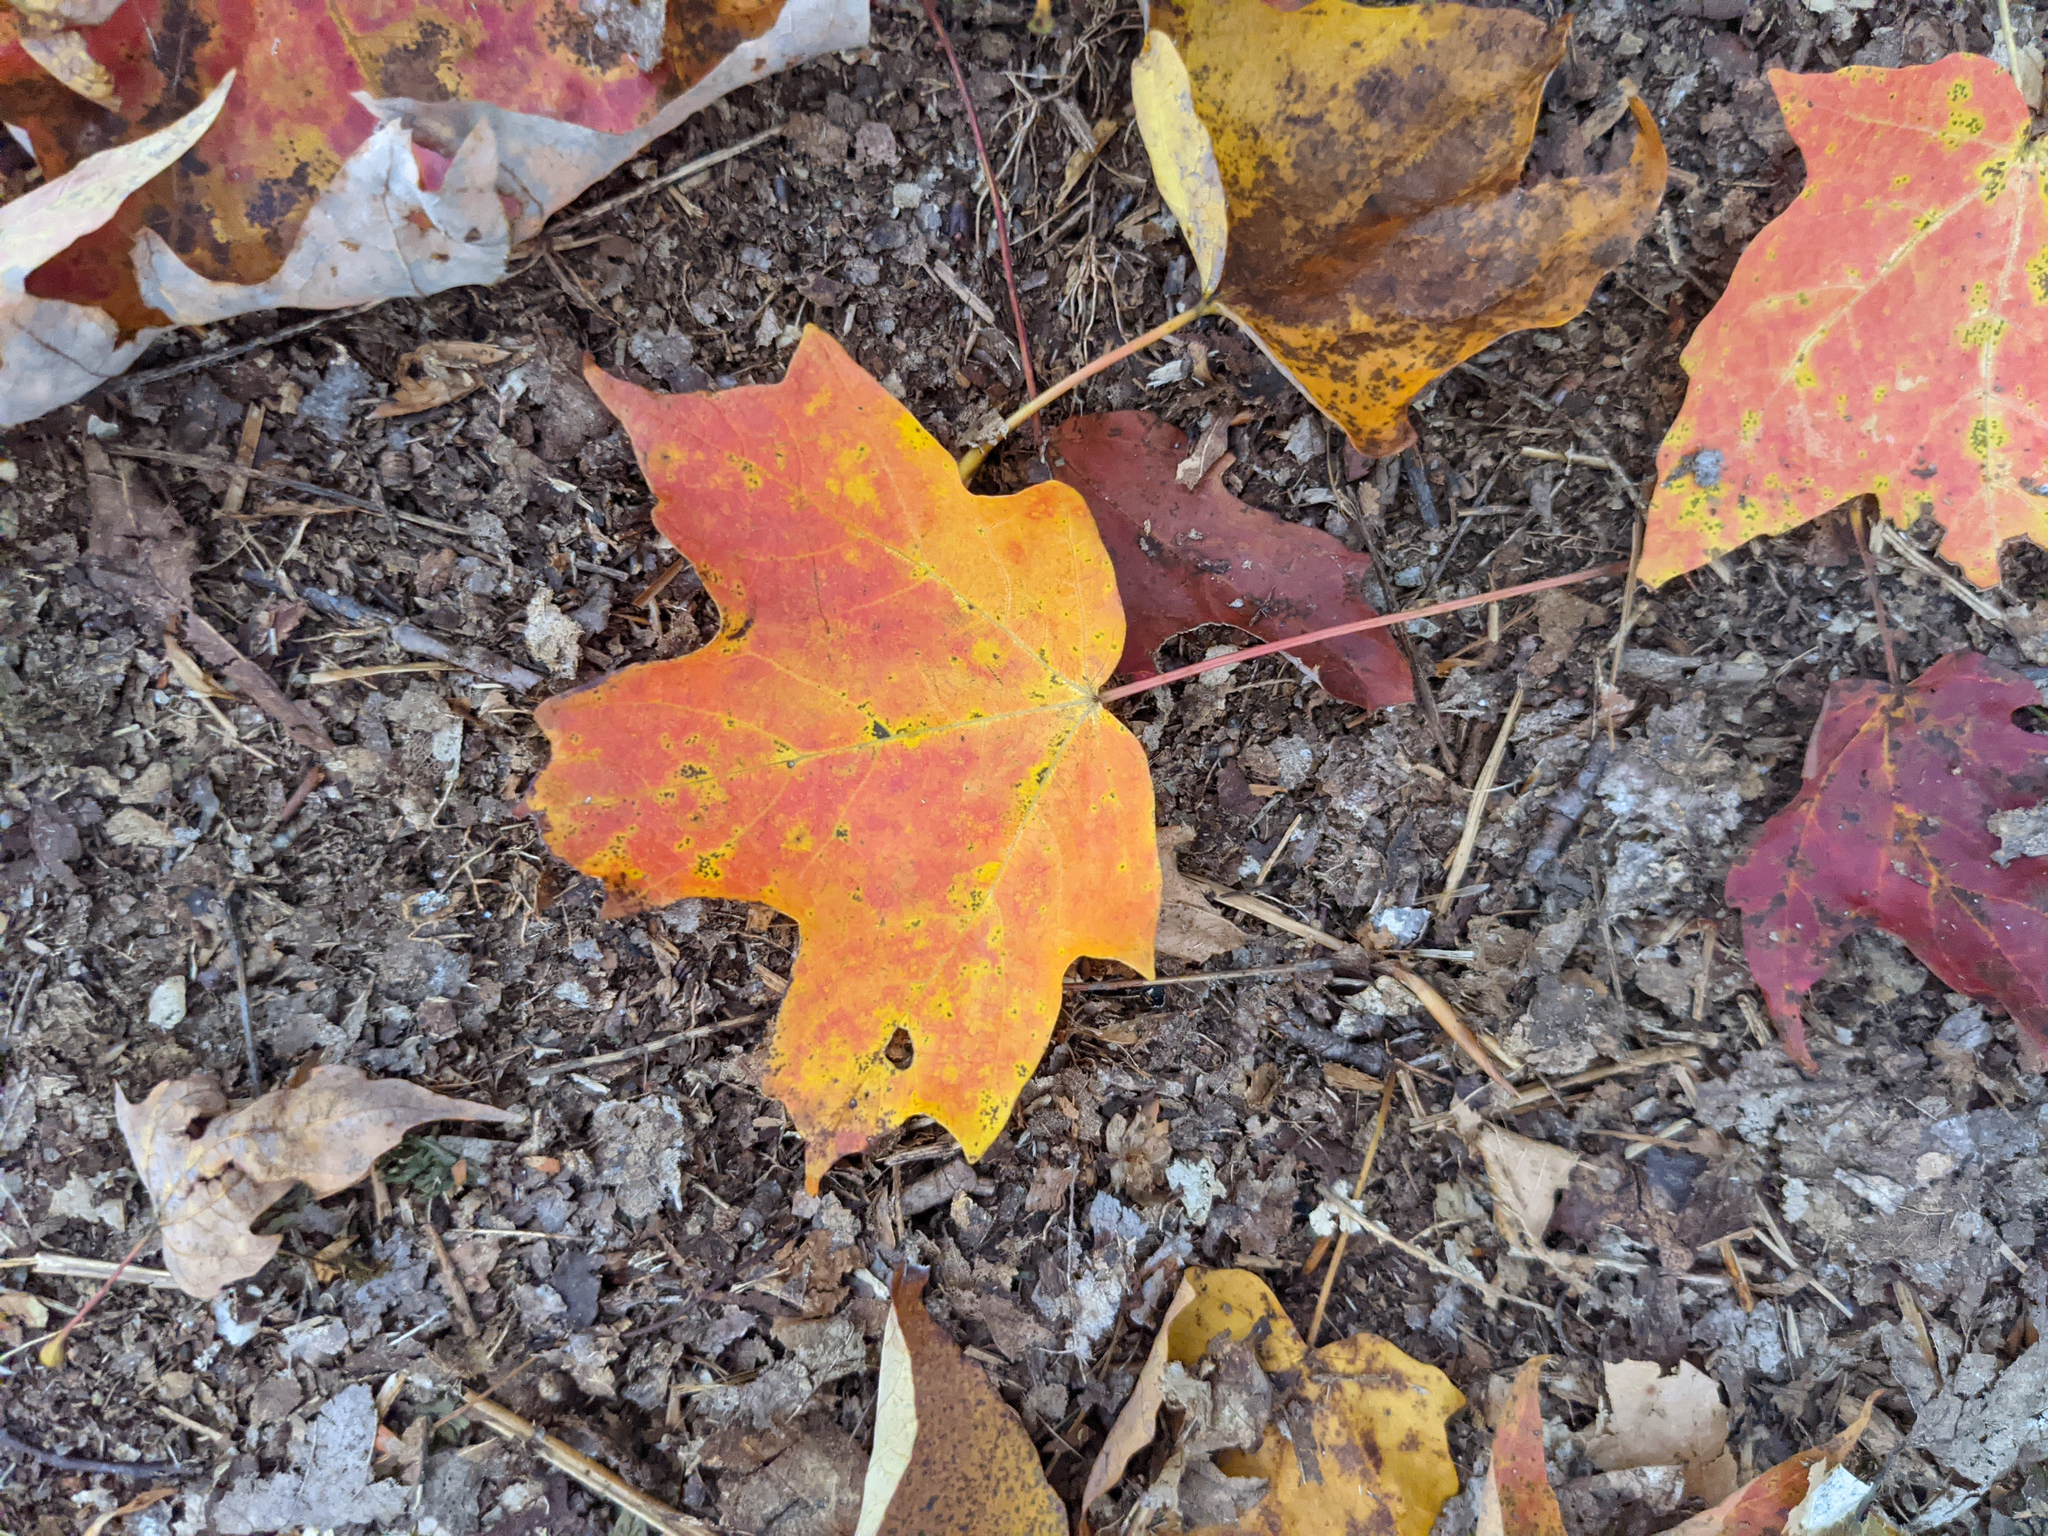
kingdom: Plantae
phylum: Tracheophyta
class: Magnoliopsida
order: Sapindales
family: Sapindaceae
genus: Acer
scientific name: Acer saccharum
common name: Sugar maple
